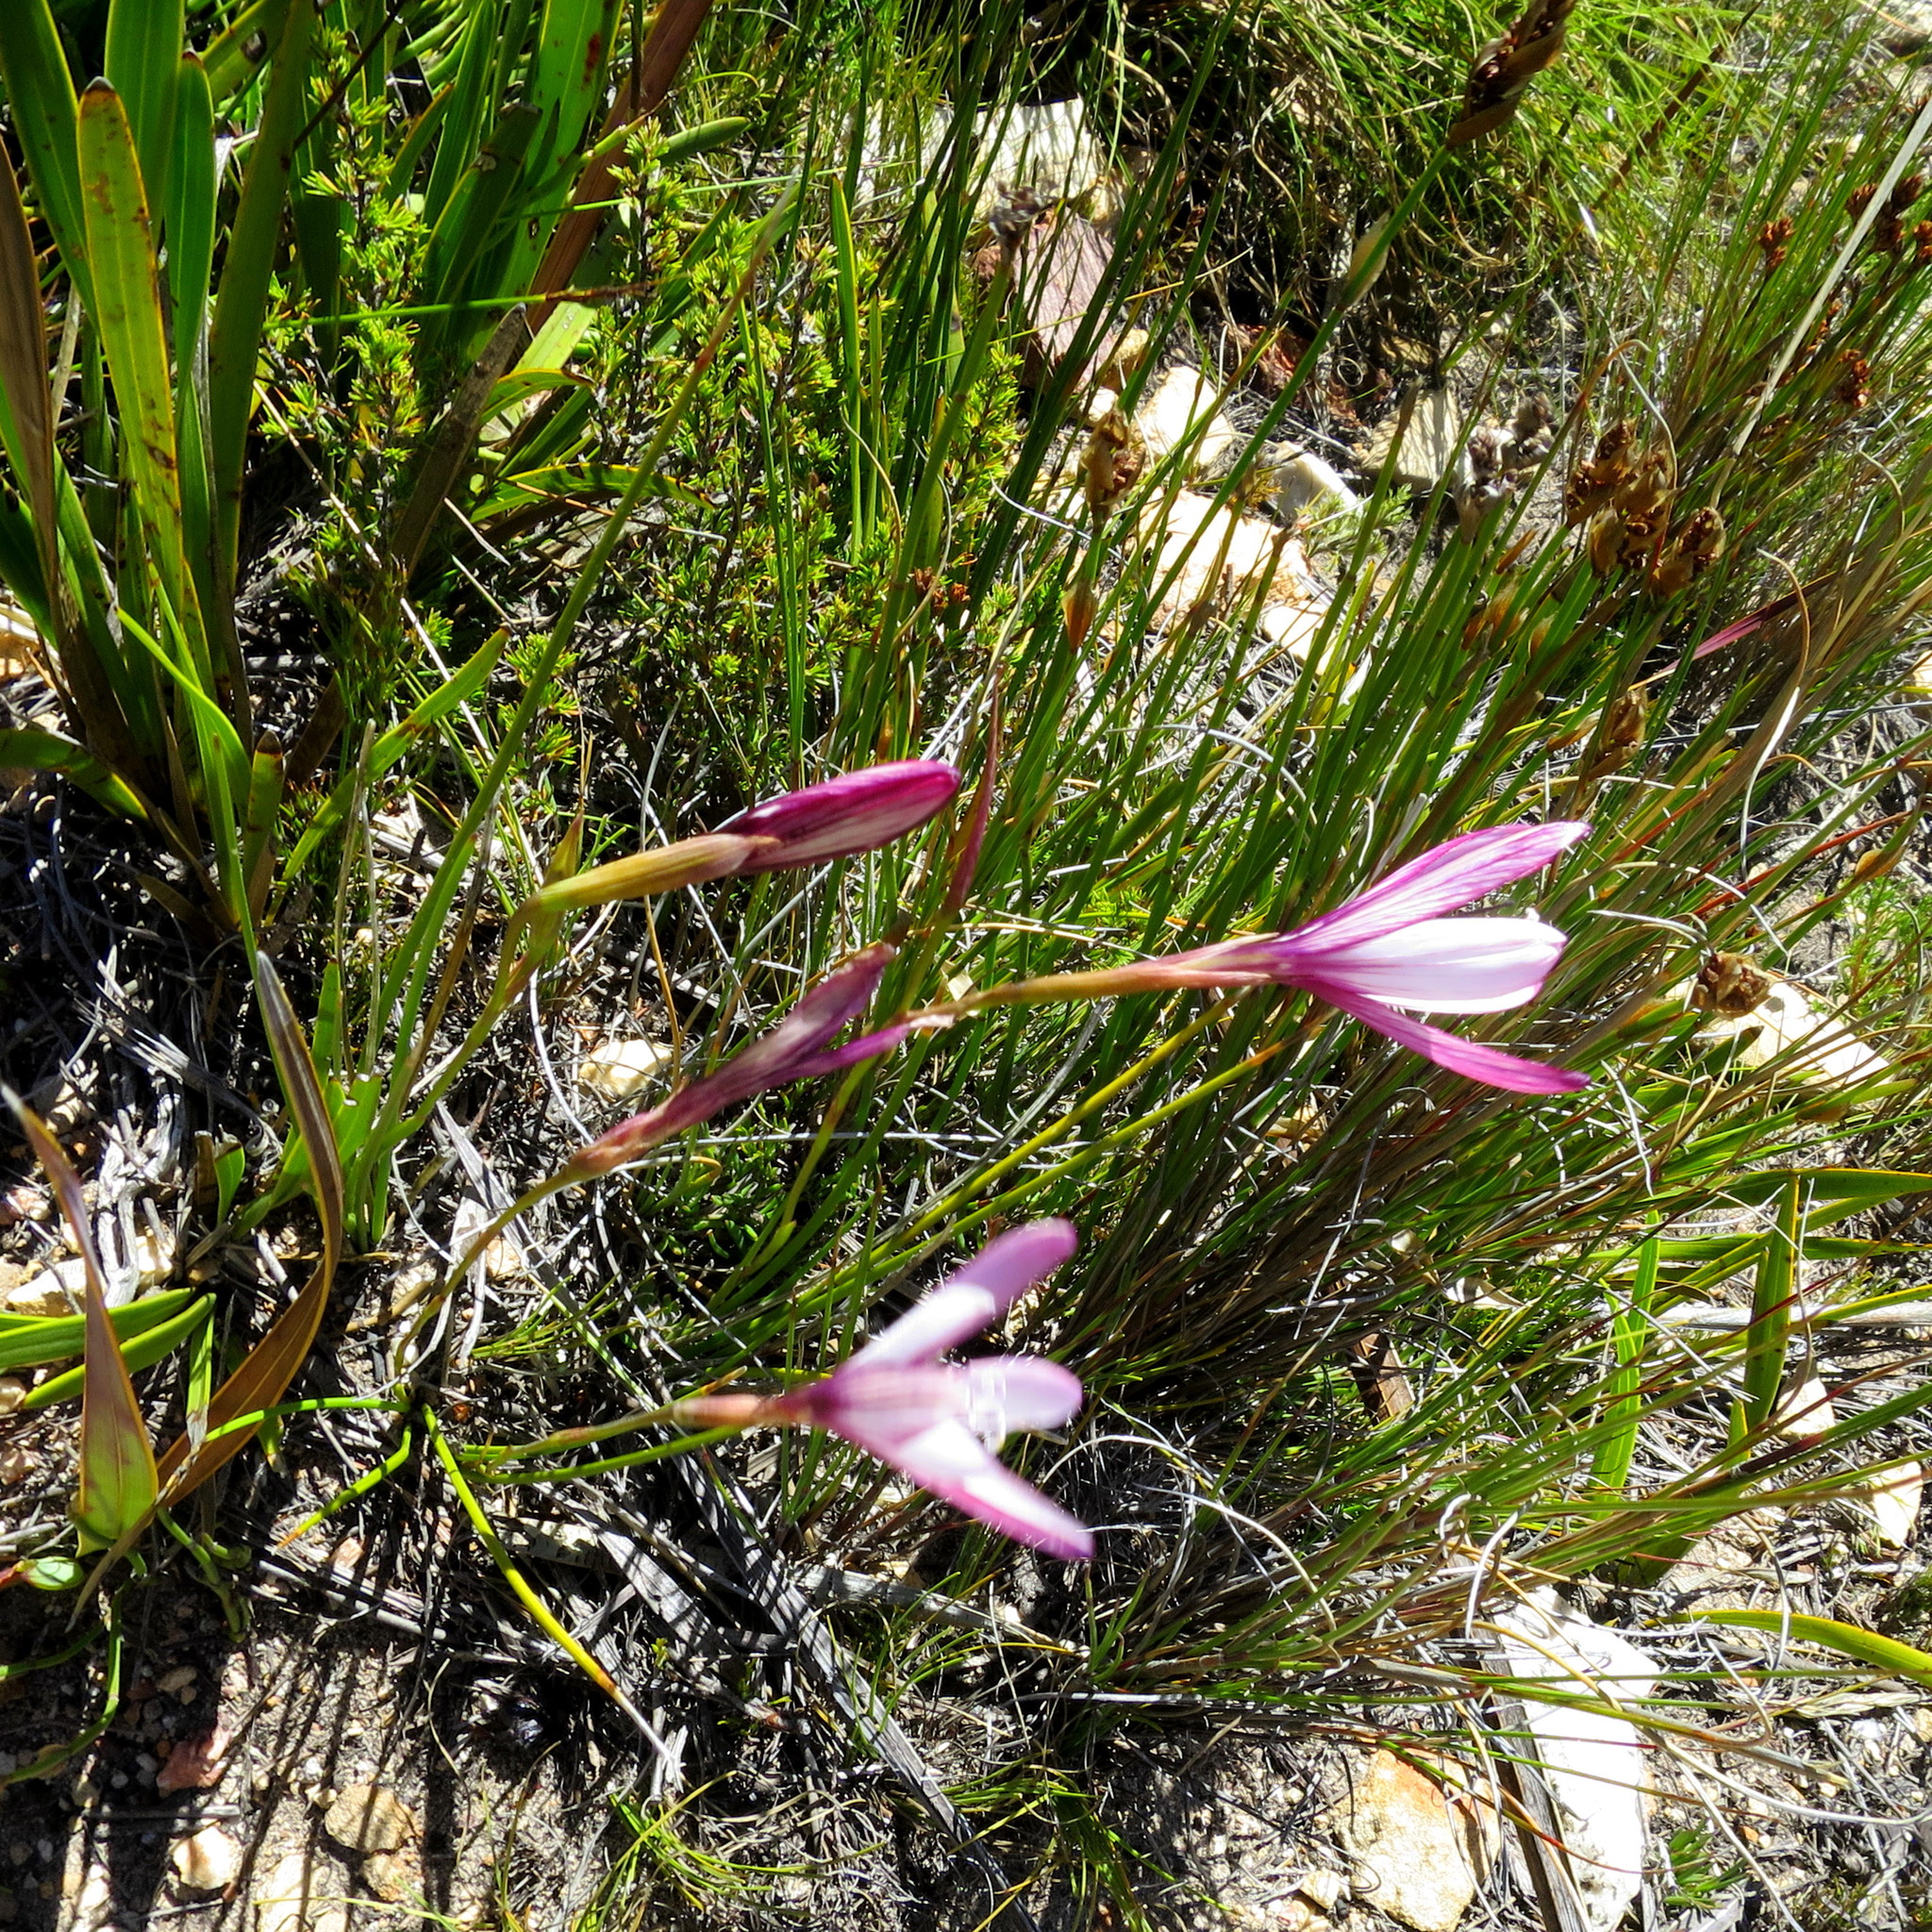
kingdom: Plantae
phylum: Tracheophyta
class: Liliopsida
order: Asparagales
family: Iridaceae
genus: Geissorhiza
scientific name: Geissorhiza fourcadei
